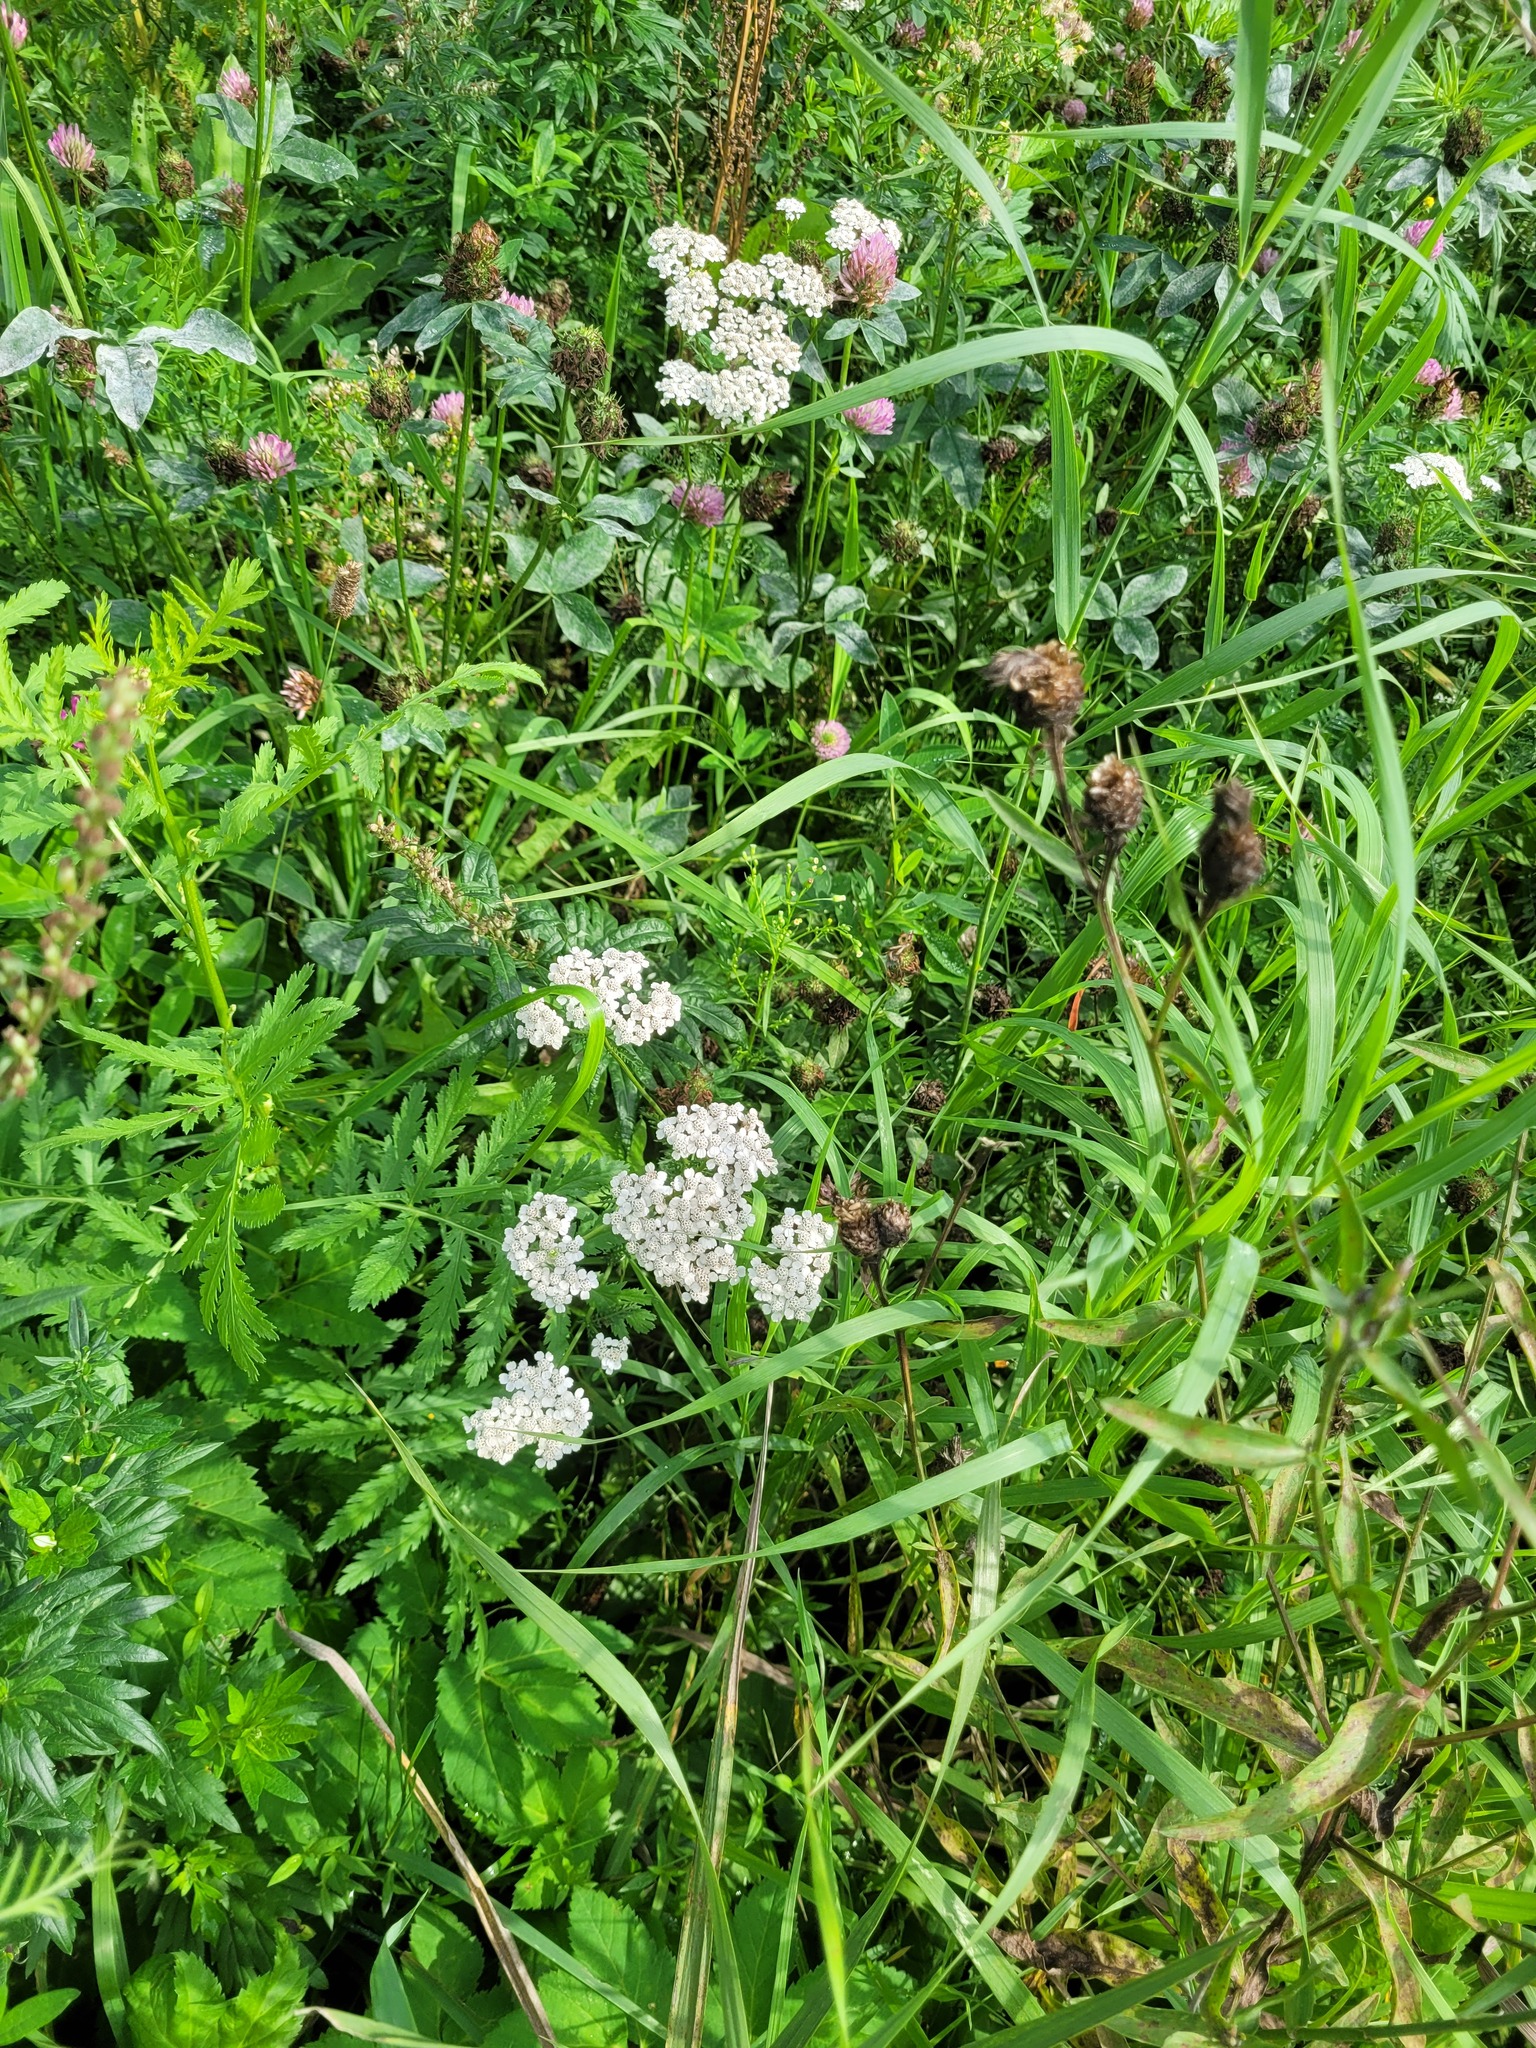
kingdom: Plantae
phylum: Tracheophyta
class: Magnoliopsida
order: Asterales
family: Asteraceae
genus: Achillea
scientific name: Achillea millefolium
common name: Yarrow
